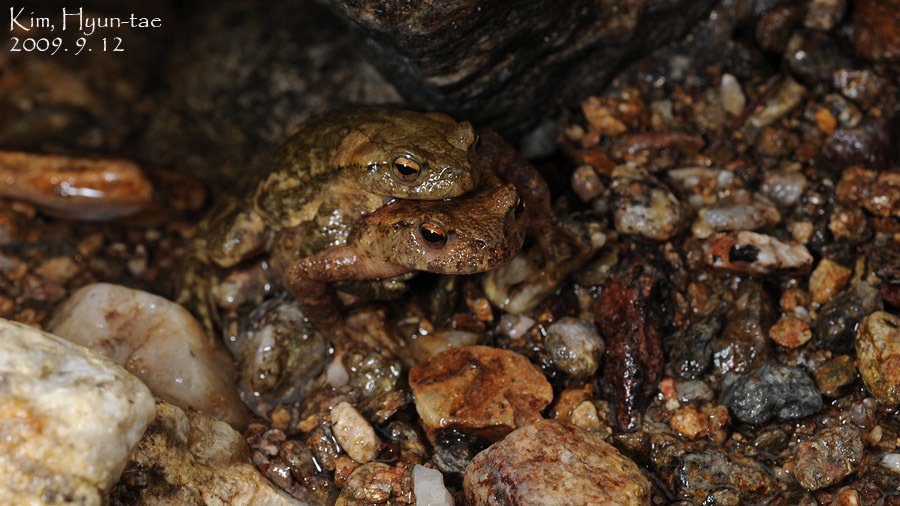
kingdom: Animalia
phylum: Chordata
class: Amphibia
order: Anura
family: Bufonidae
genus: Bufo
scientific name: Bufo stejnegeri
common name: Water toad
